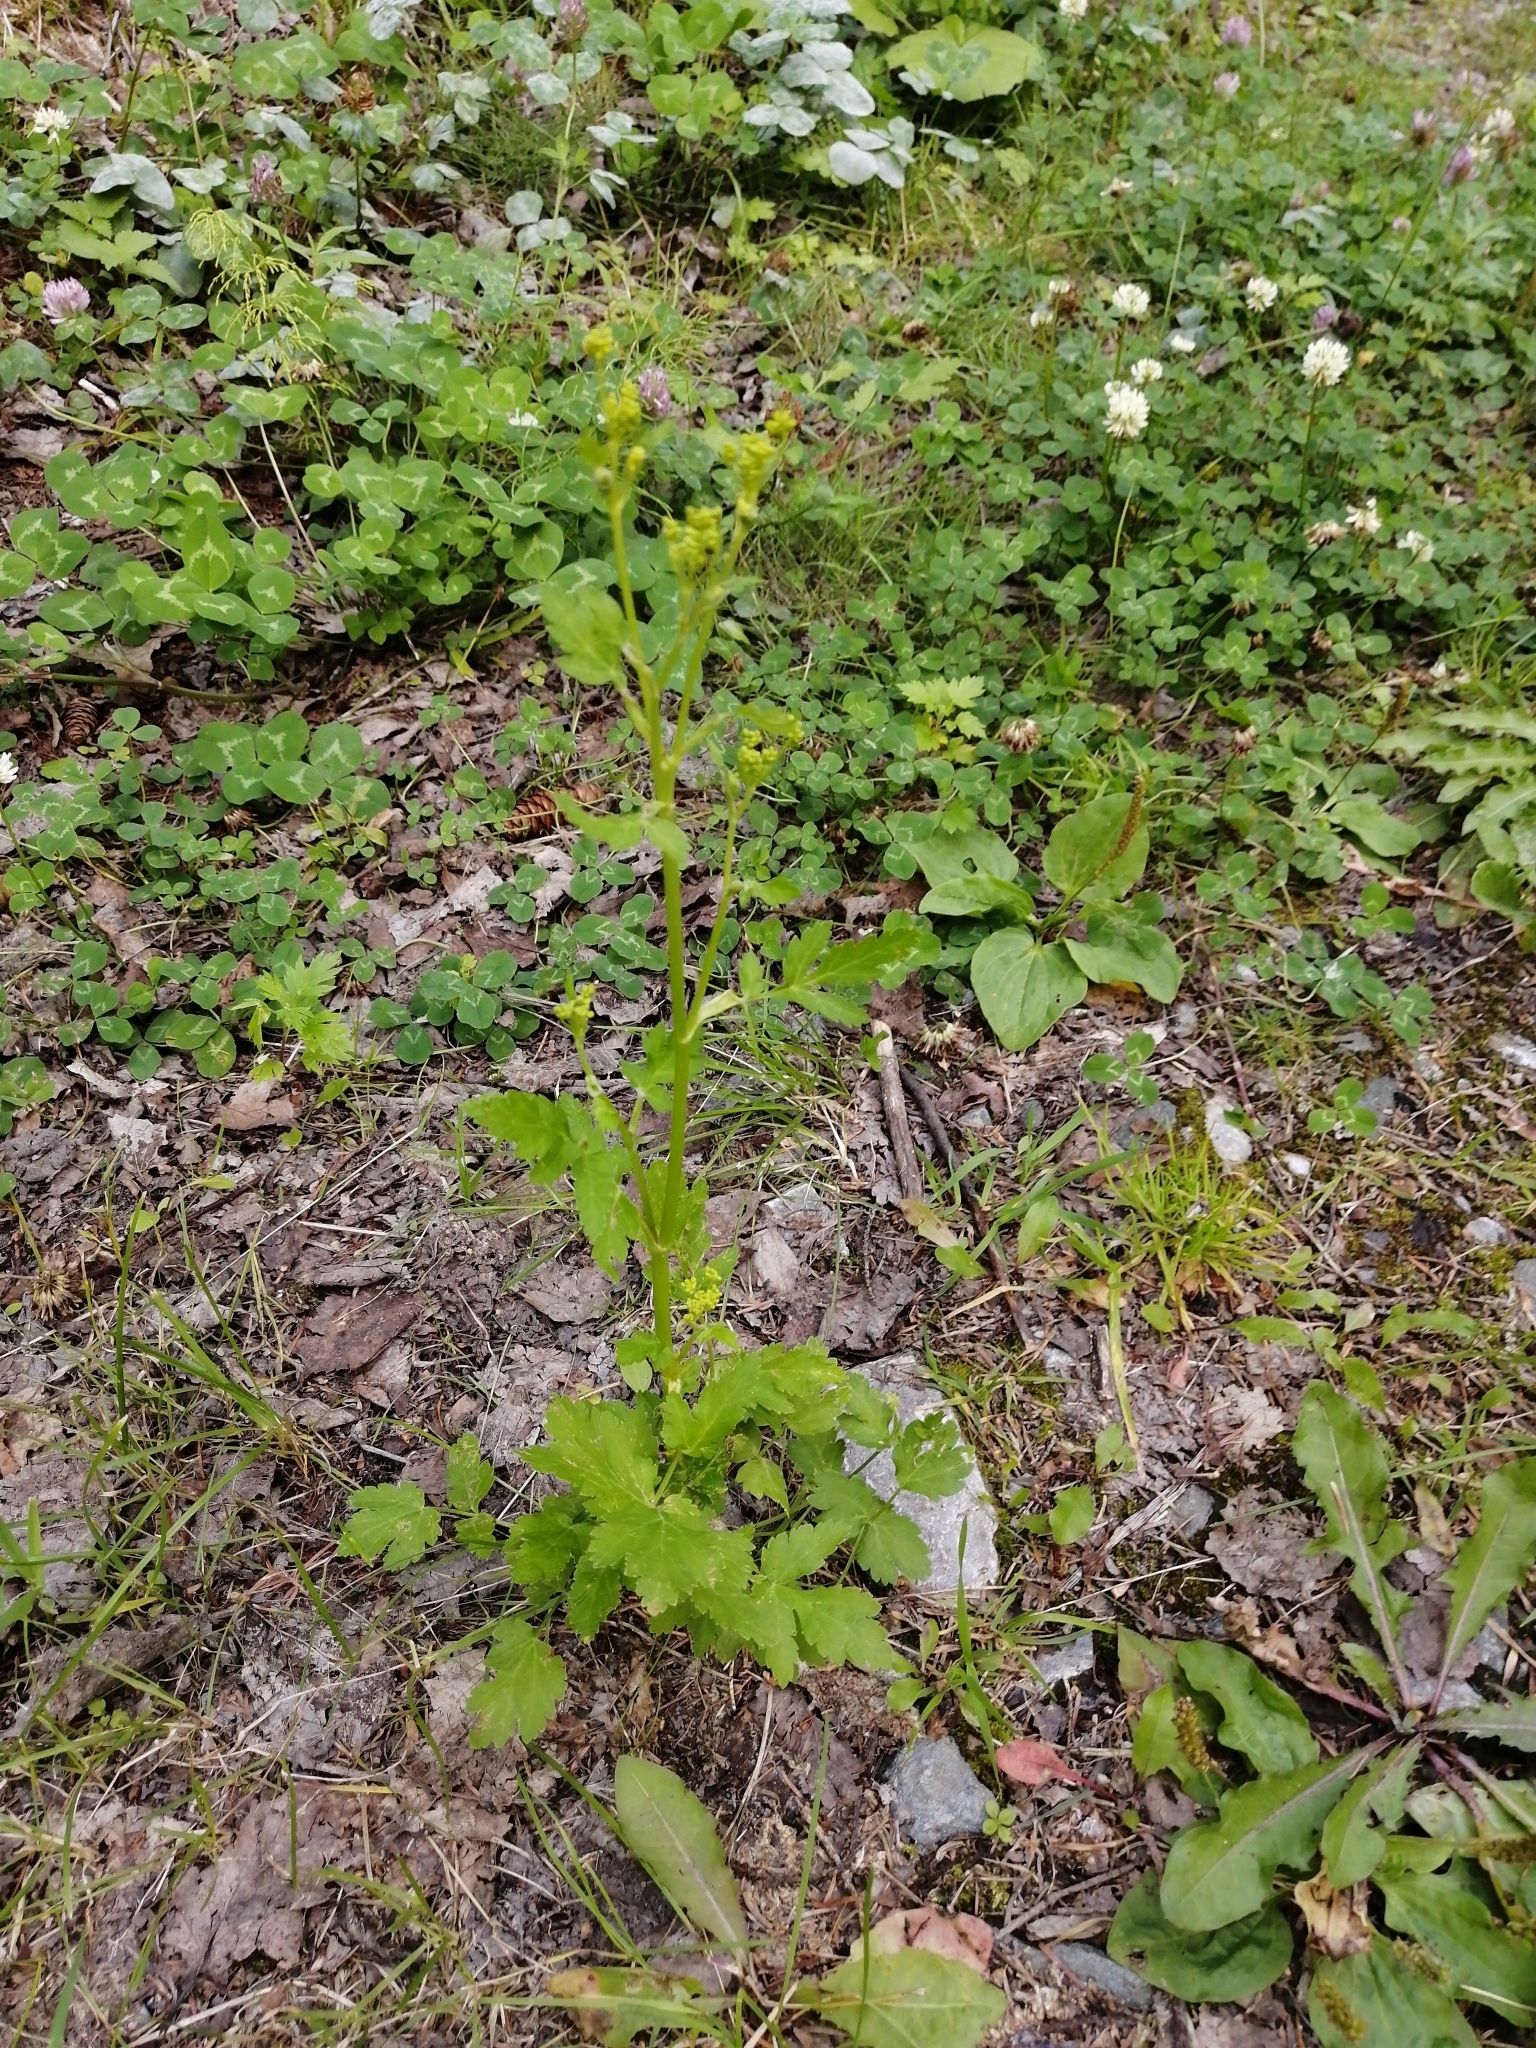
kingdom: Plantae
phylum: Tracheophyta
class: Magnoliopsida
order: Apiales
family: Apiaceae
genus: Pastinaca
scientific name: Pastinaca sativa
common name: Wild parsnip
